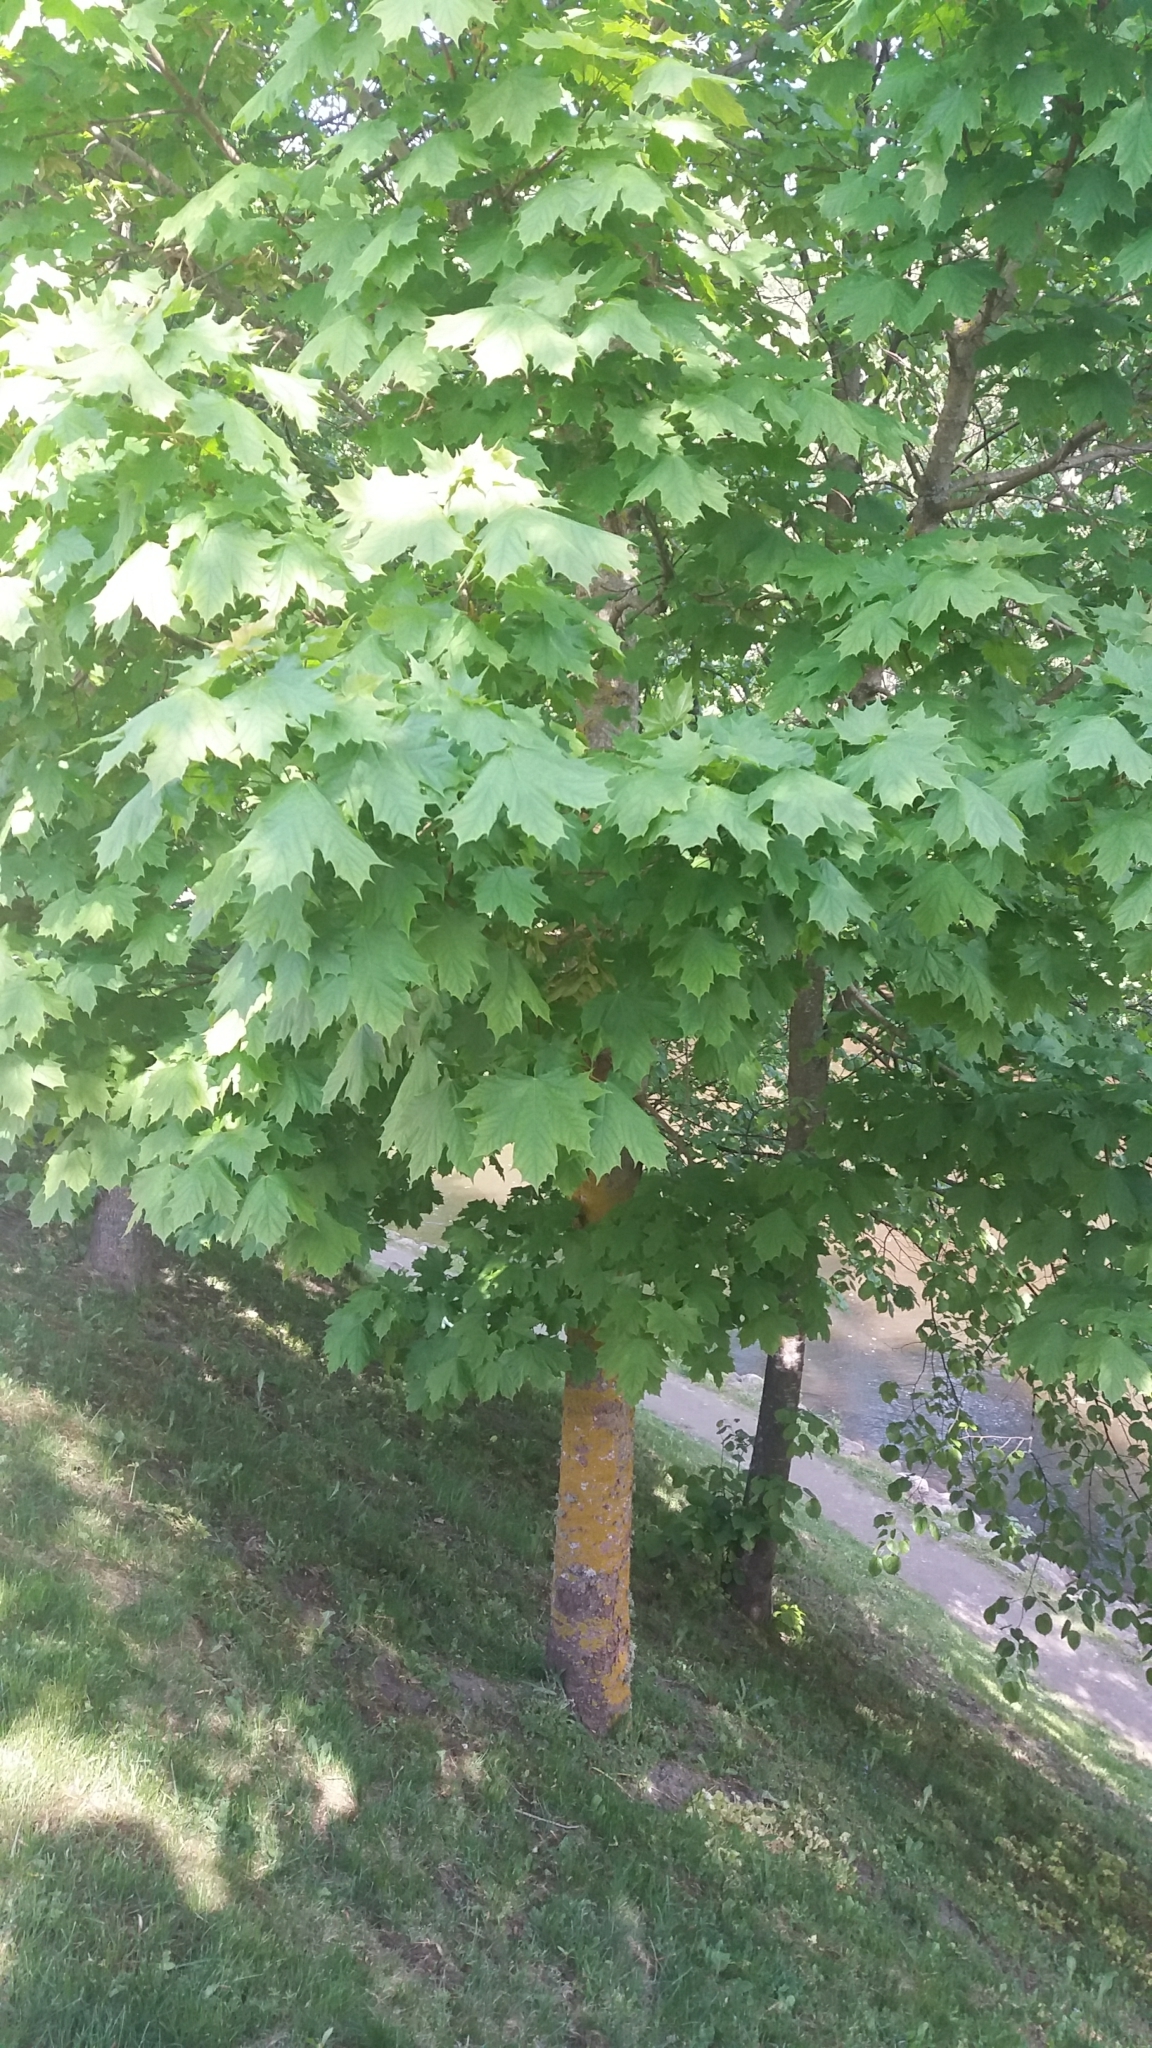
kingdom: Plantae
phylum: Tracheophyta
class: Magnoliopsida
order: Sapindales
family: Sapindaceae
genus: Acer
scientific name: Acer platanoides
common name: Norway maple
